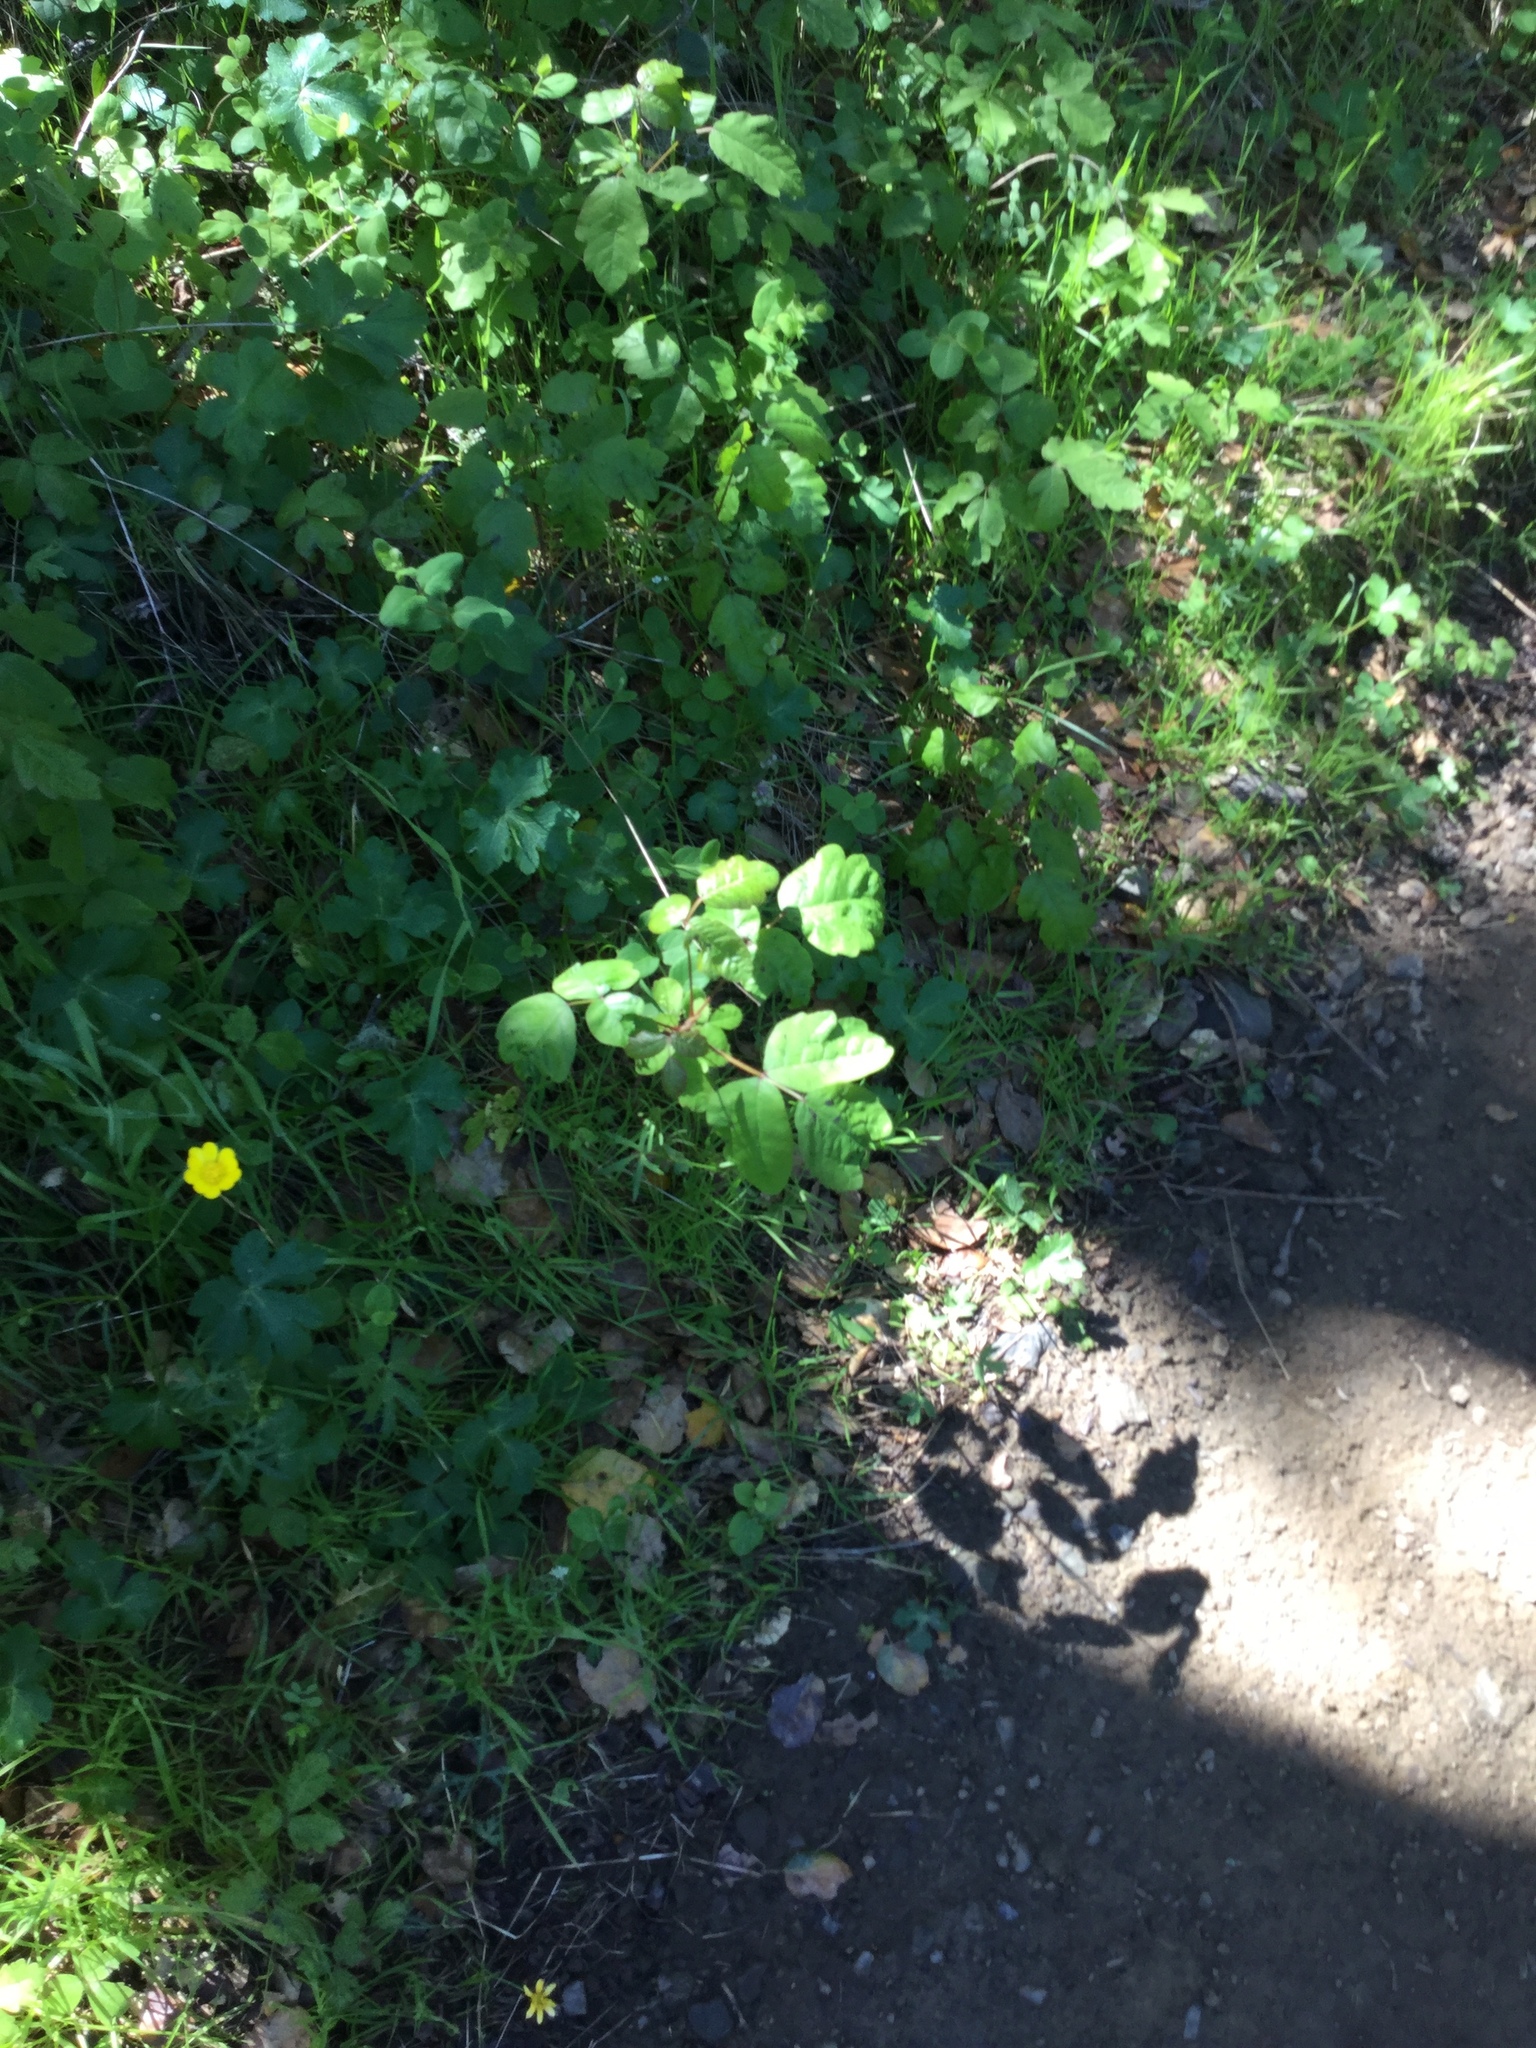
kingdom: Plantae
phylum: Tracheophyta
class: Magnoliopsida
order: Myrtales
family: Onagraceae
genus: Taraxia
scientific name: Taraxia ovata
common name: Goldeneggs
